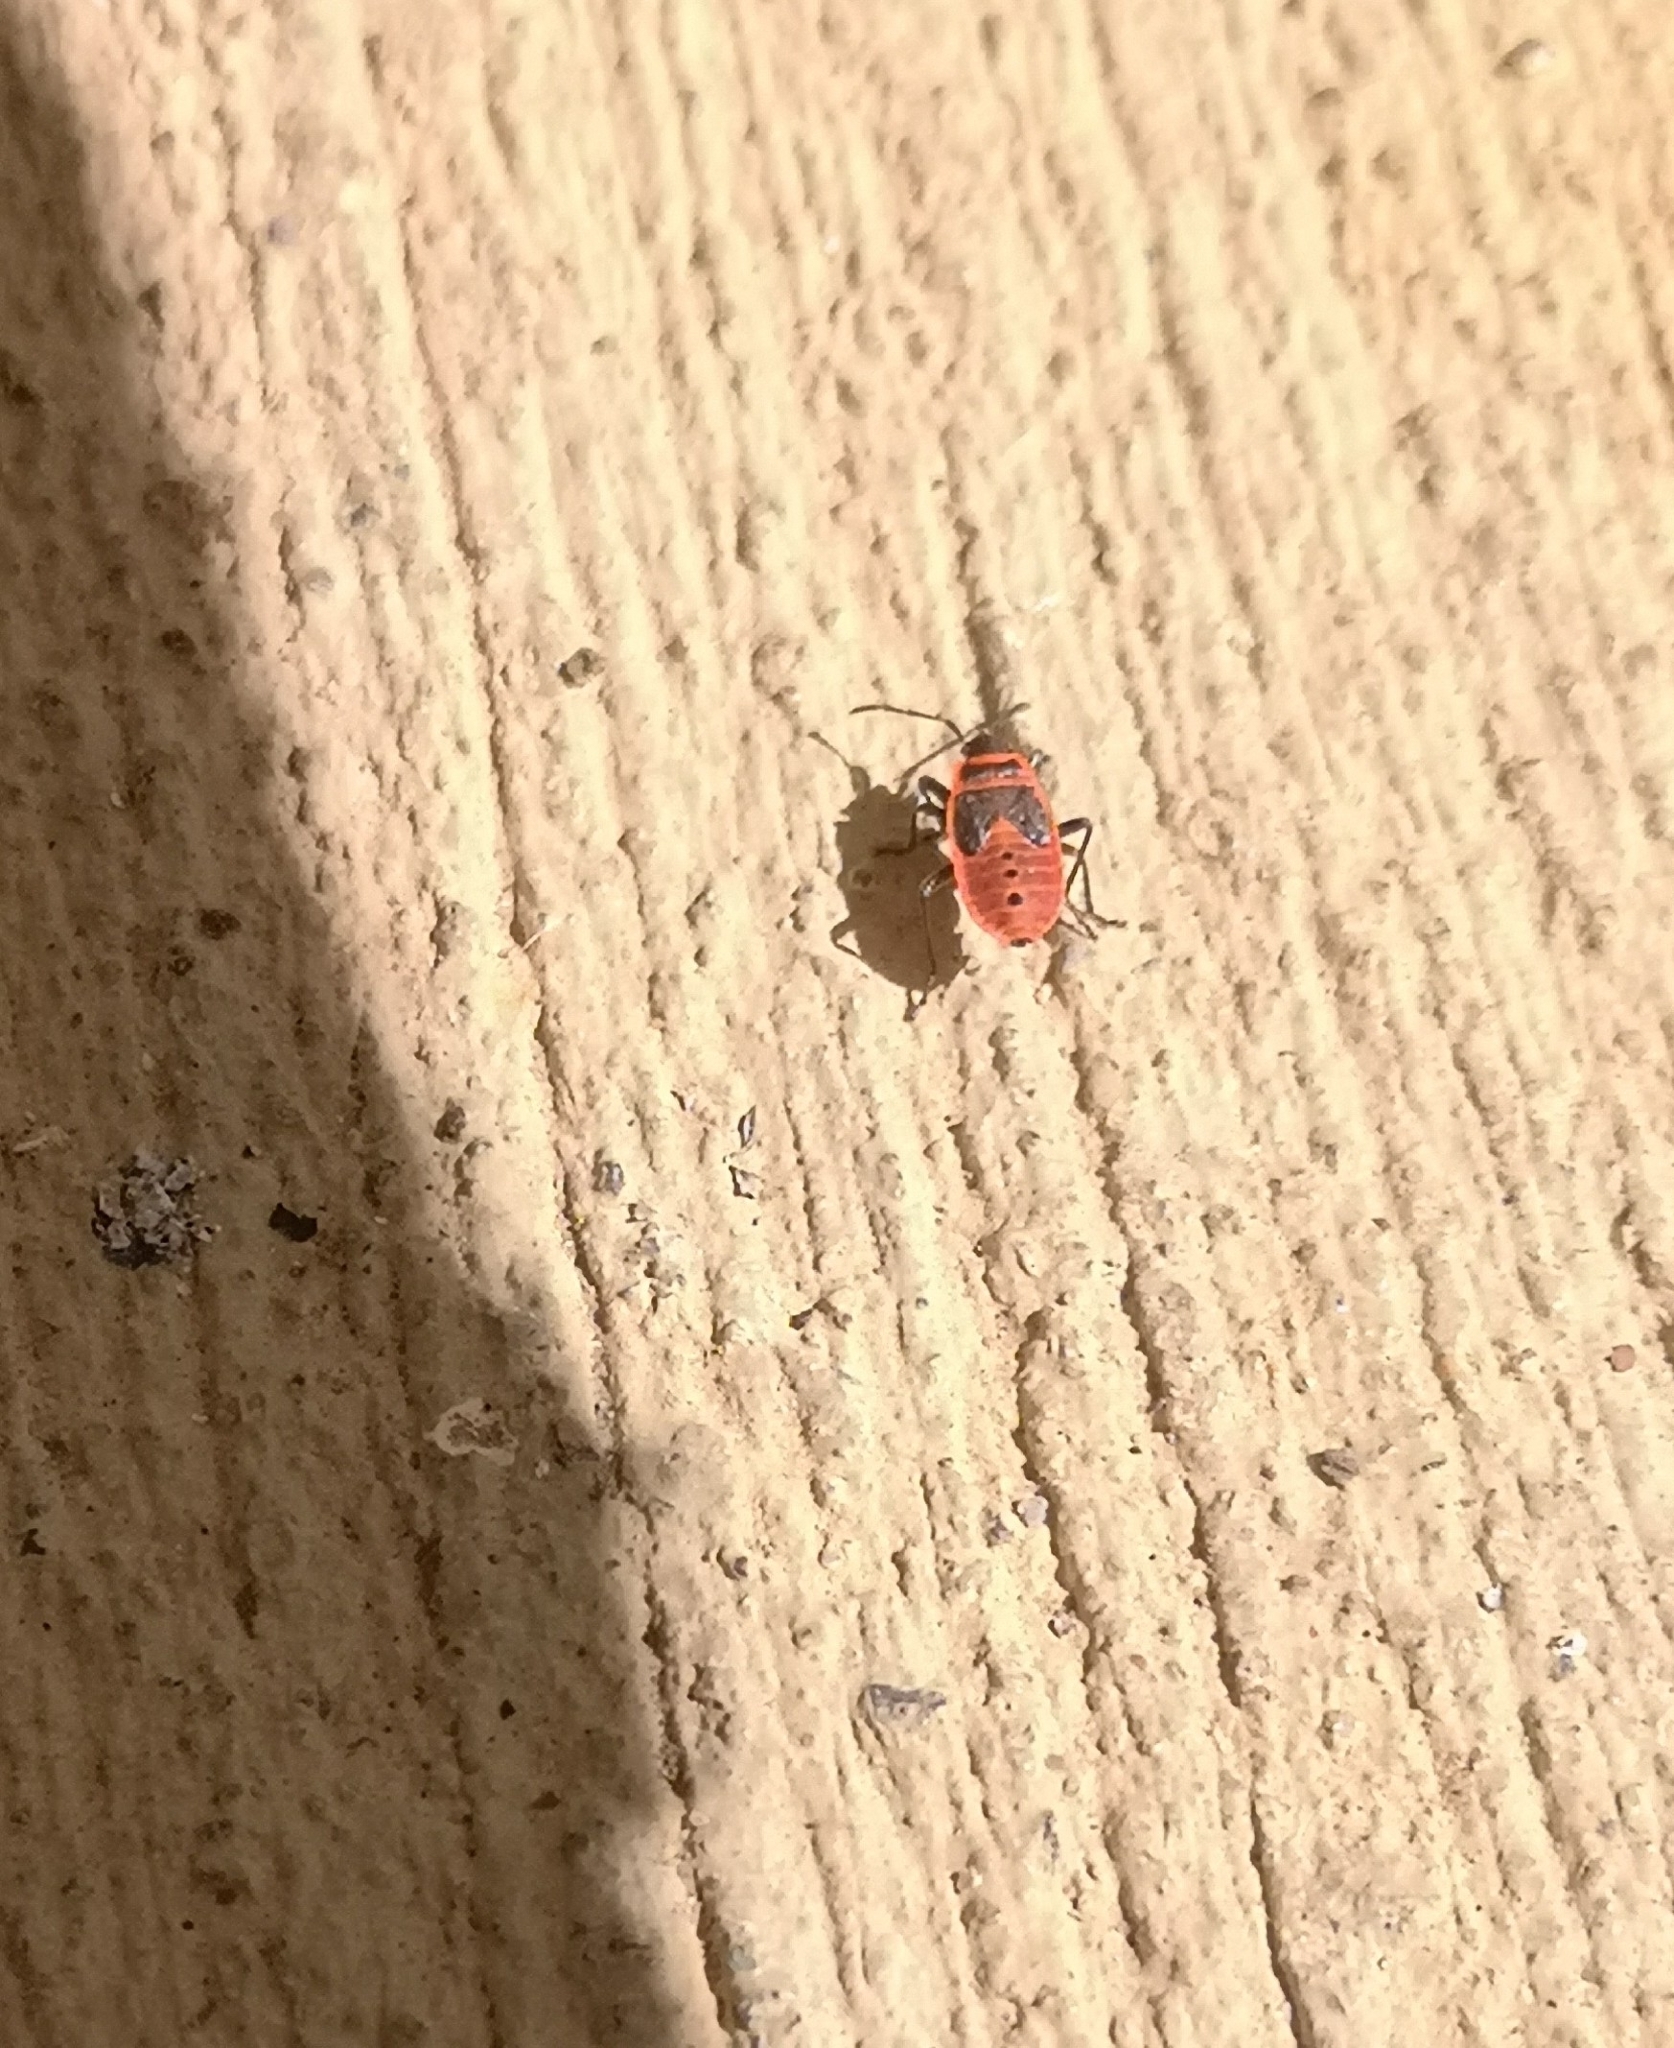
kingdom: Animalia
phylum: Arthropoda
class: Insecta
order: Hemiptera
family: Pyrrhocoridae
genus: Pyrrhocoris
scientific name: Pyrrhocoris apterus
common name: Firebug
